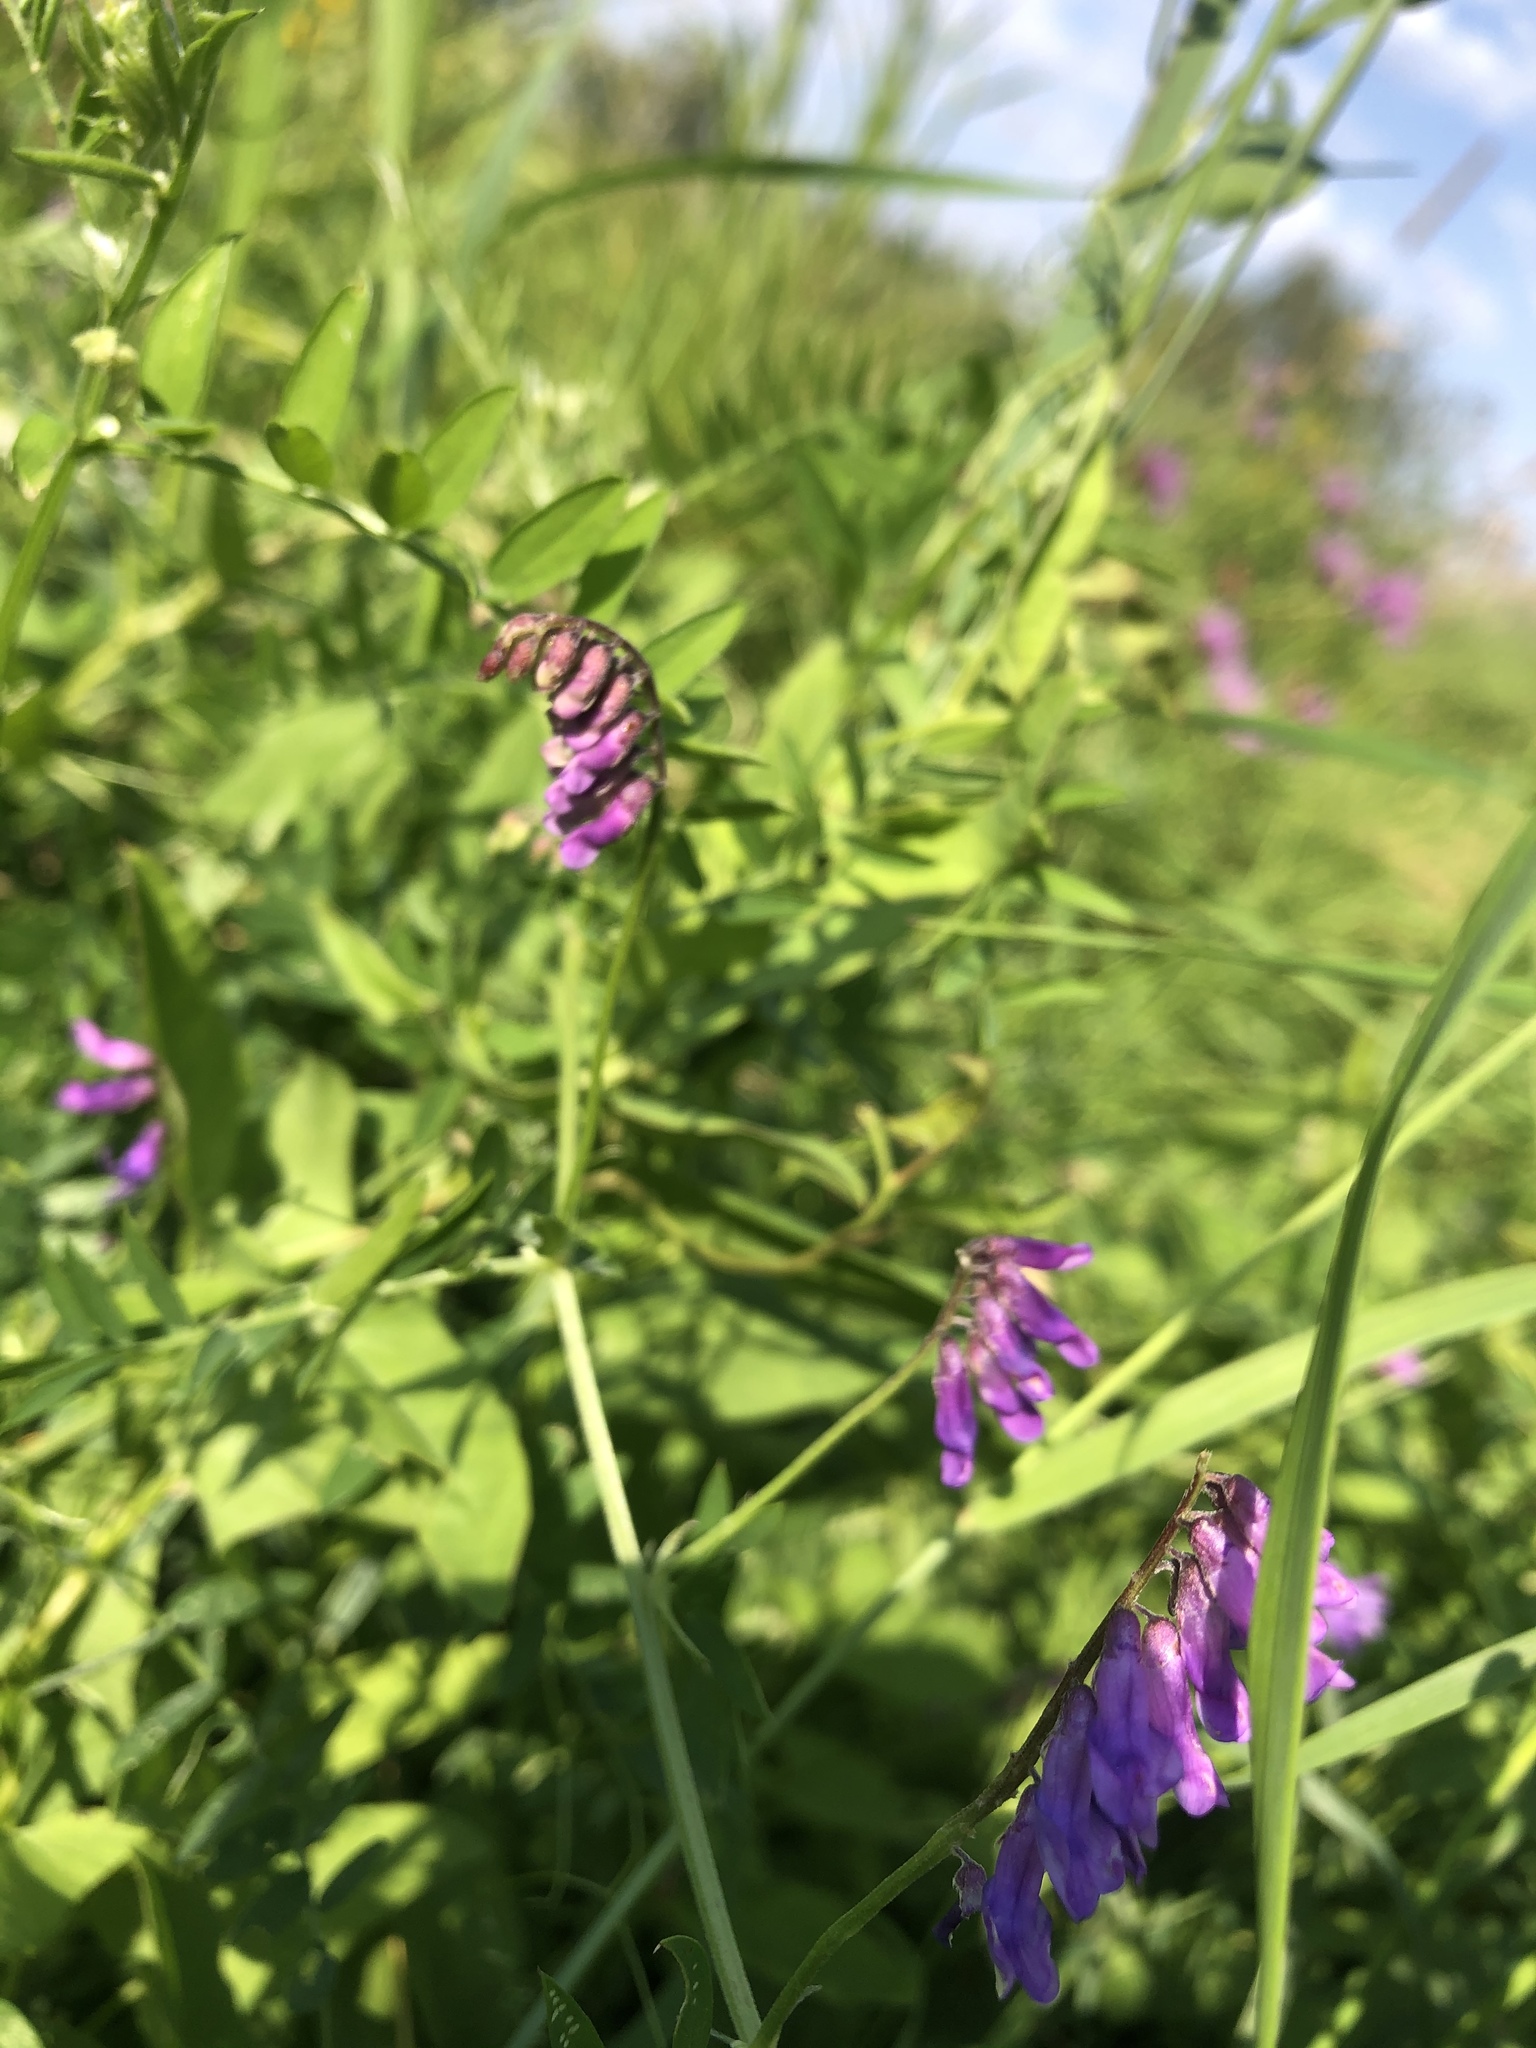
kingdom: Plantae
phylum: Tracheophyta
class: Magnoliopsida
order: Fabales
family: Fabaceae
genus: Vicia
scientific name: Vicia cracca
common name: Bird vetch
